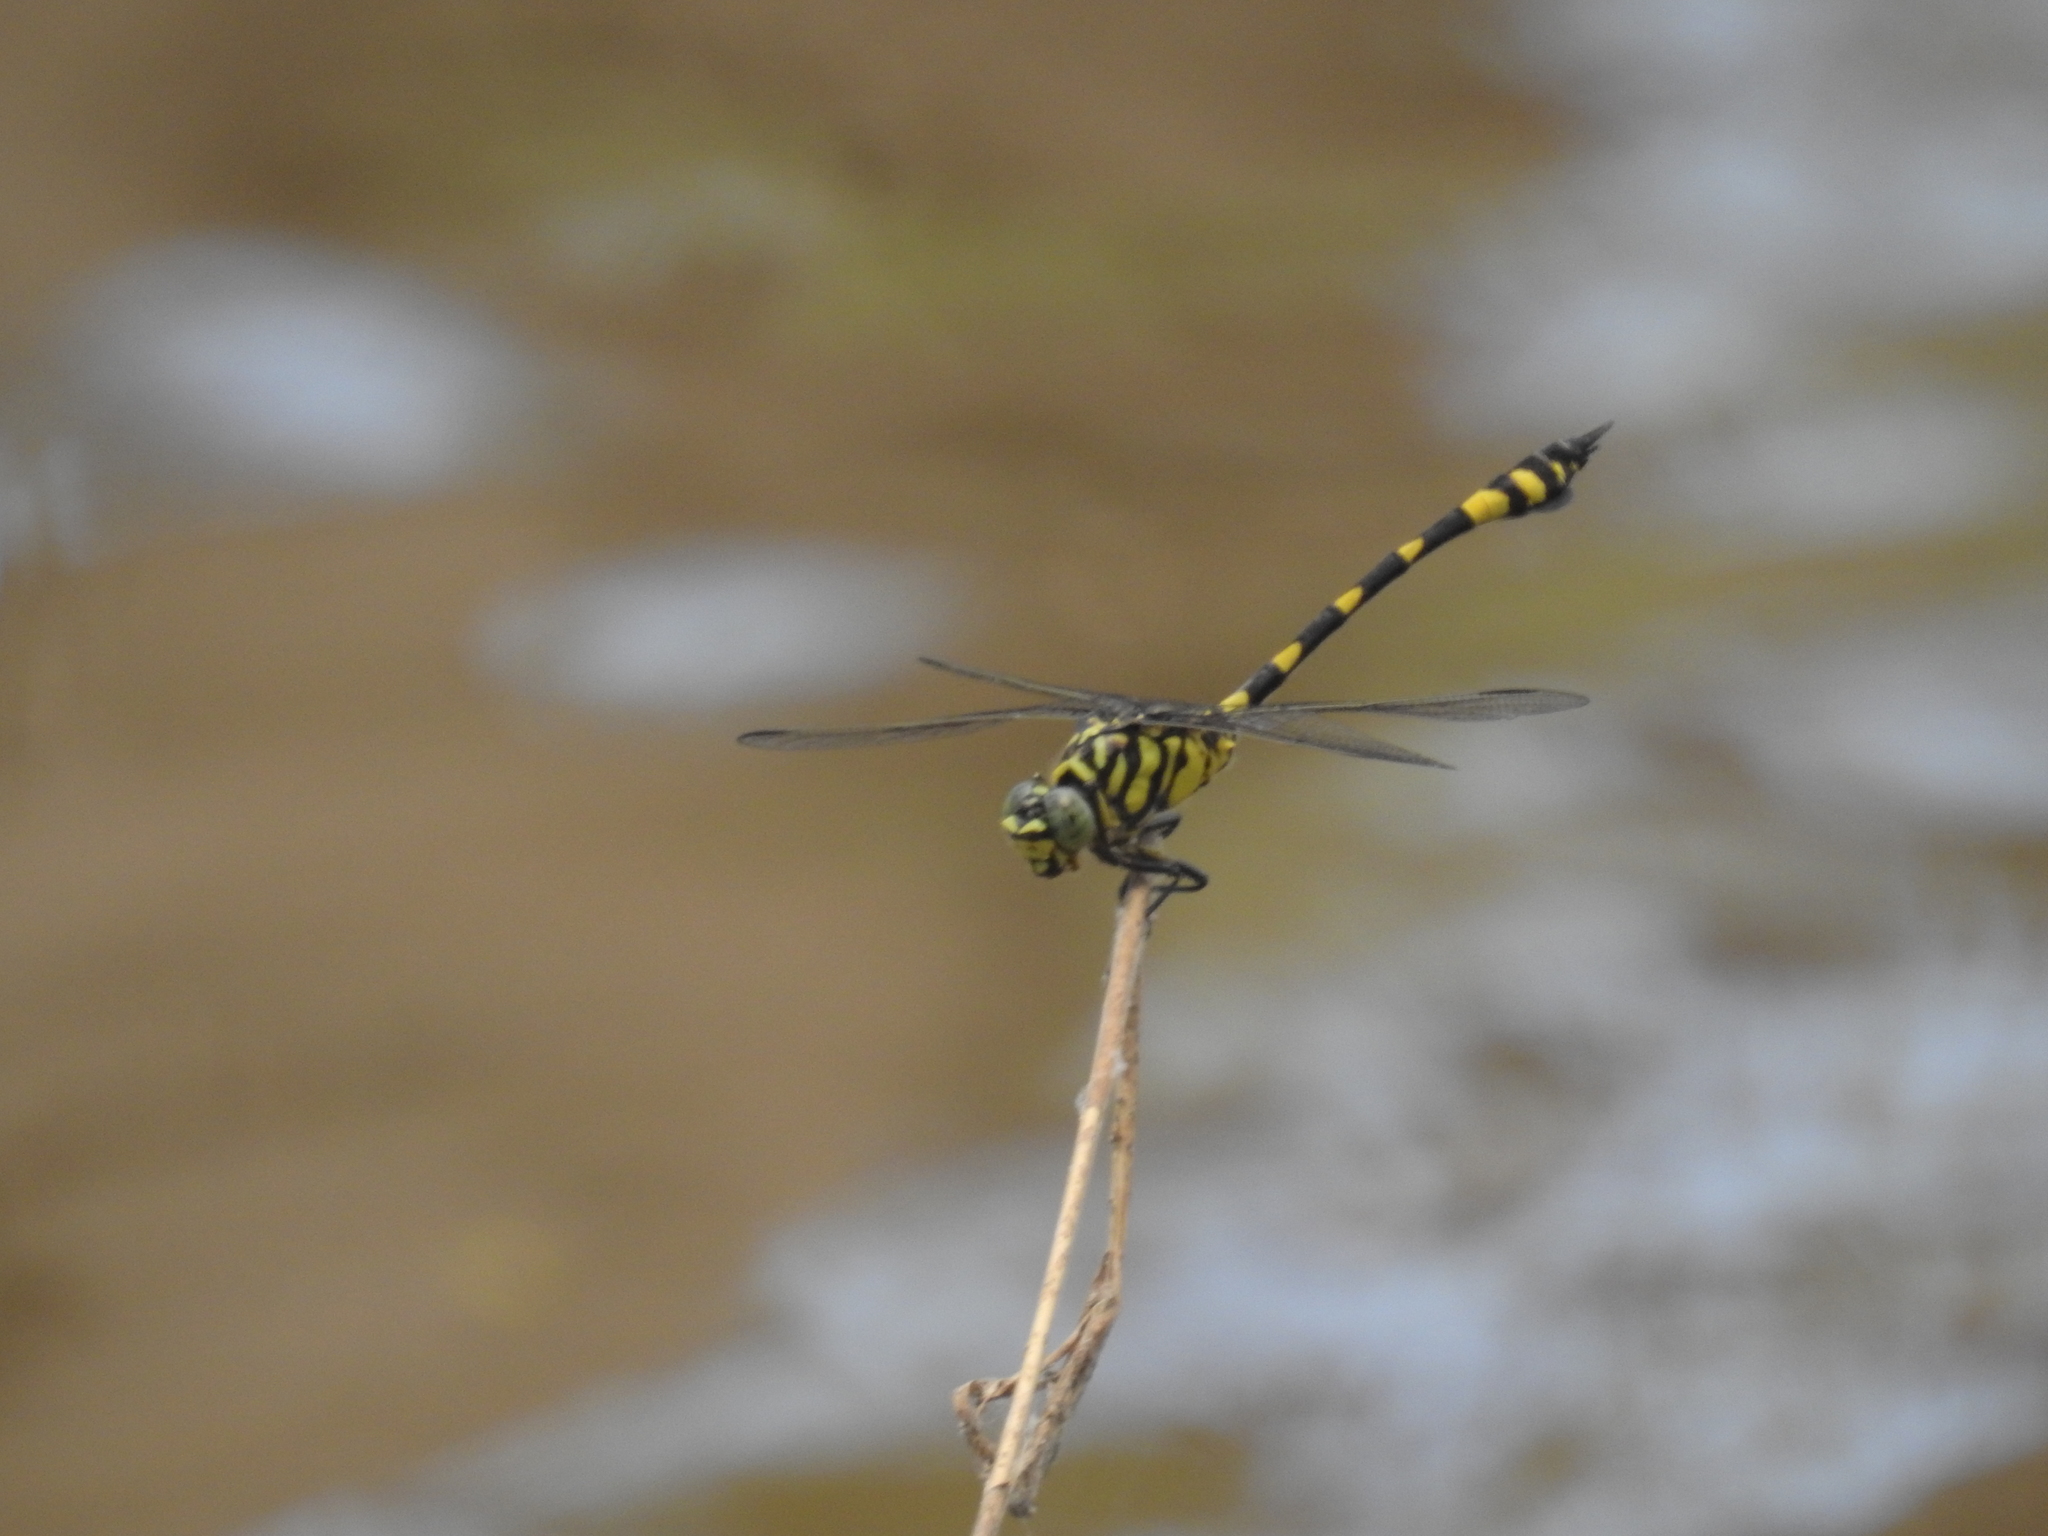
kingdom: Animalia
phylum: Arthropoda
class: Insecta
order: Odonata
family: Gomphidae
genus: Ictinogomphus
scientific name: Ictinogomphus australis
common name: Australian tiger
